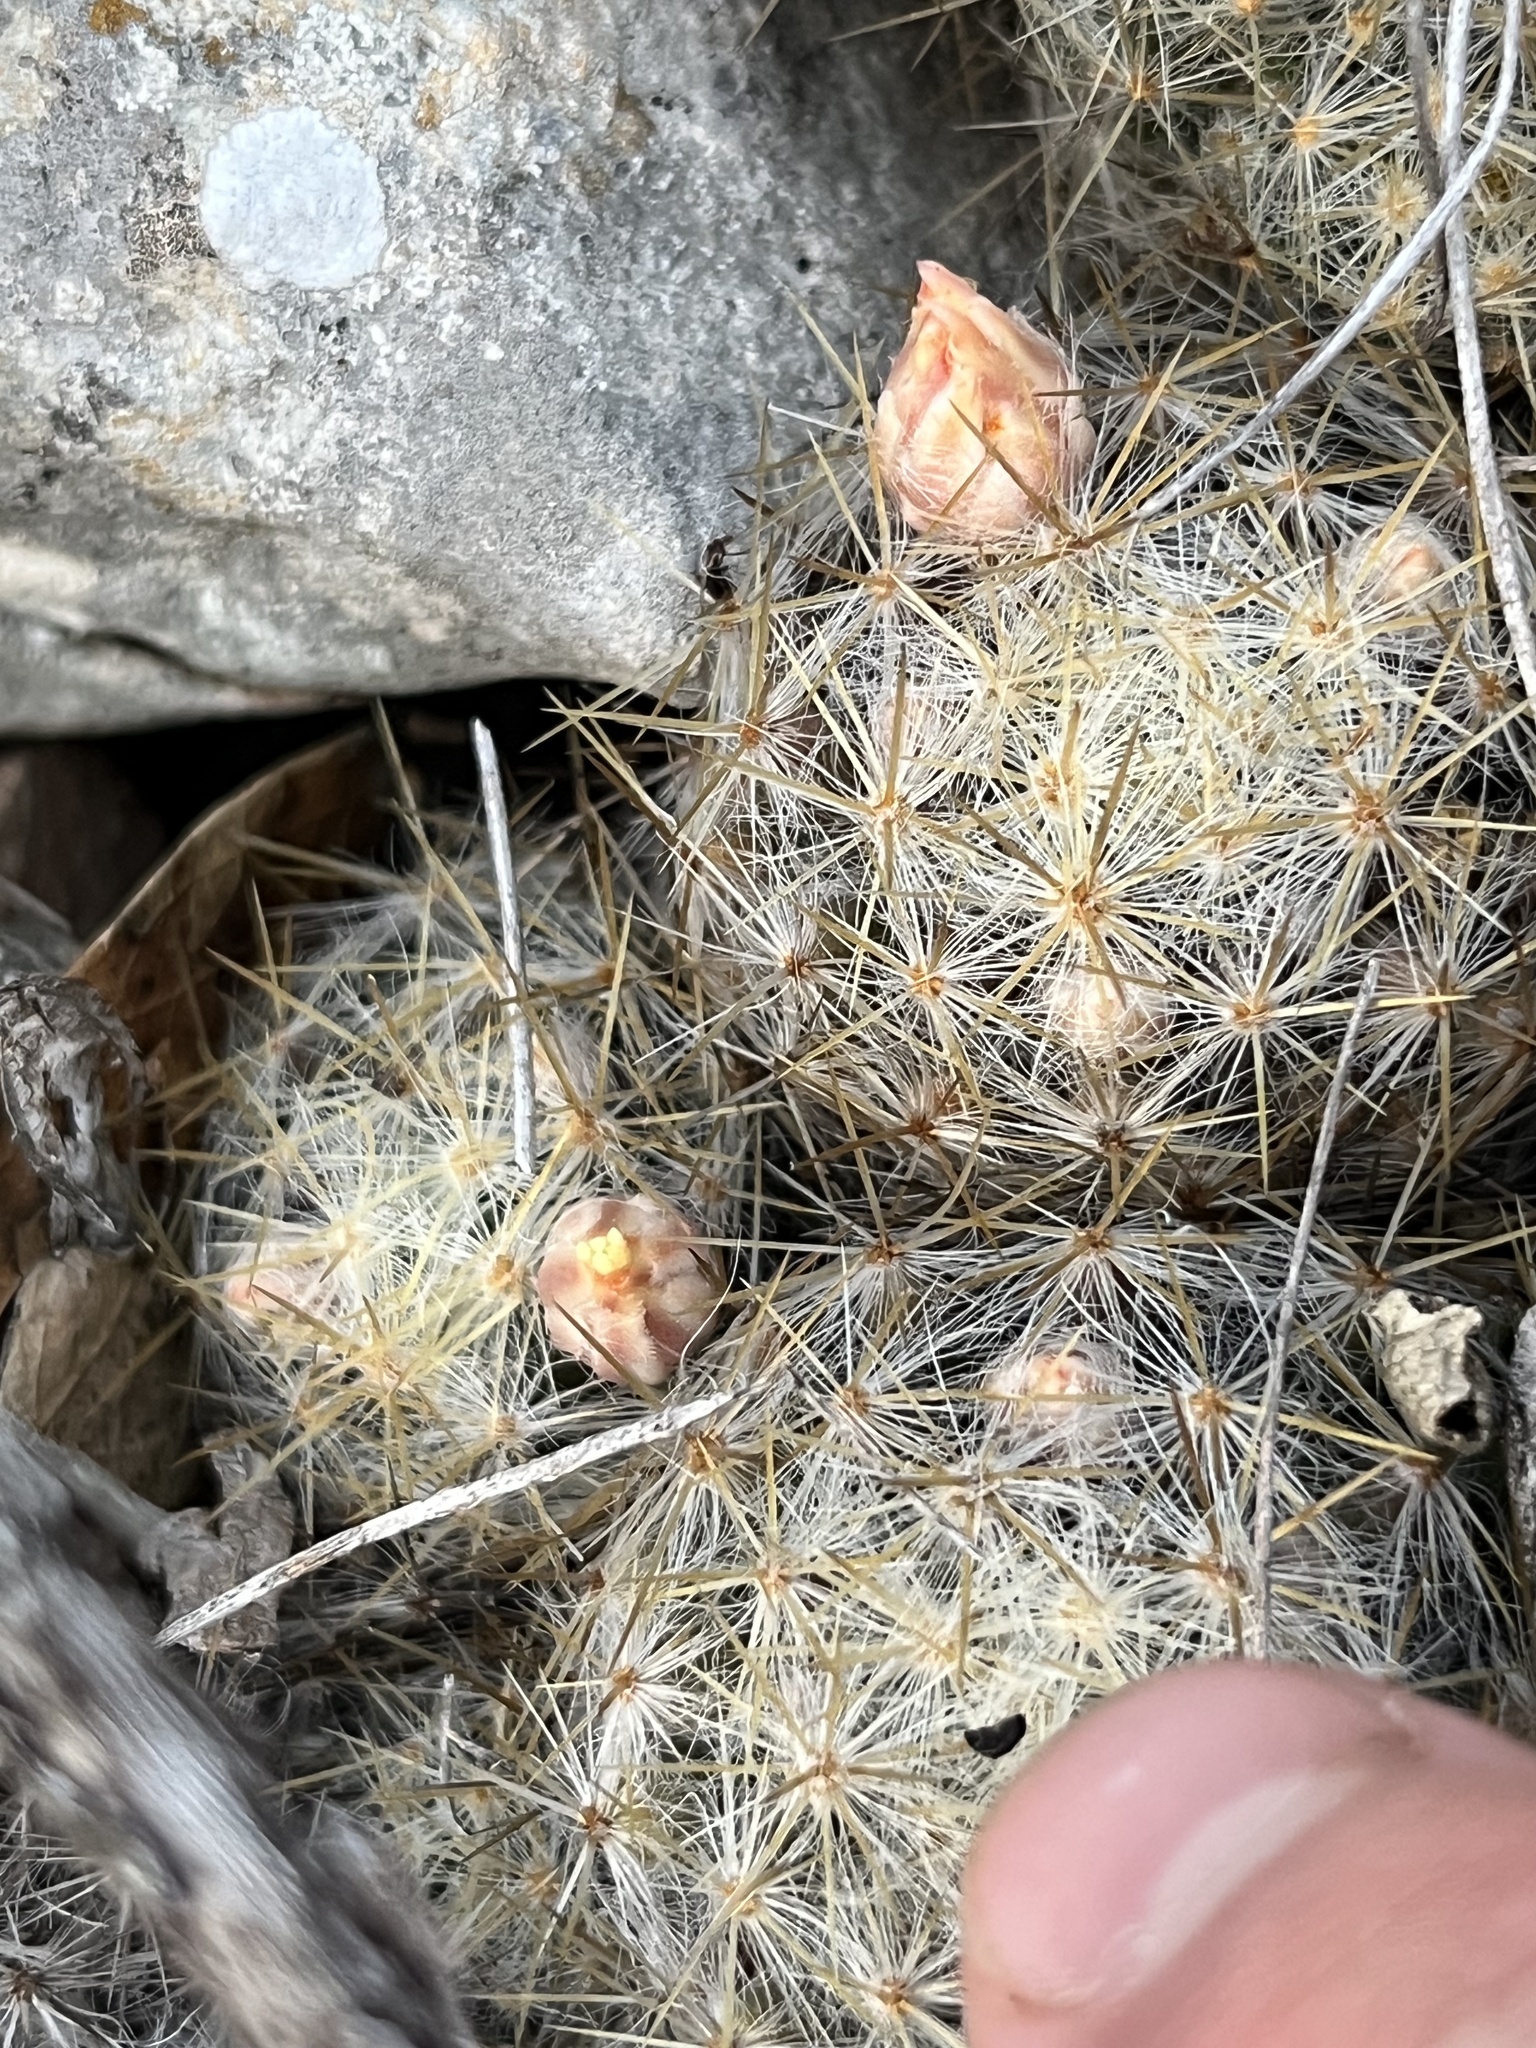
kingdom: Plantae
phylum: Tracheophyta
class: Magnoliopsida
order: Caryophyllales
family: Cactaceae
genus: Mammillaria
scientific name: Mammillaria prolifera
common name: Texas nipple cactus
